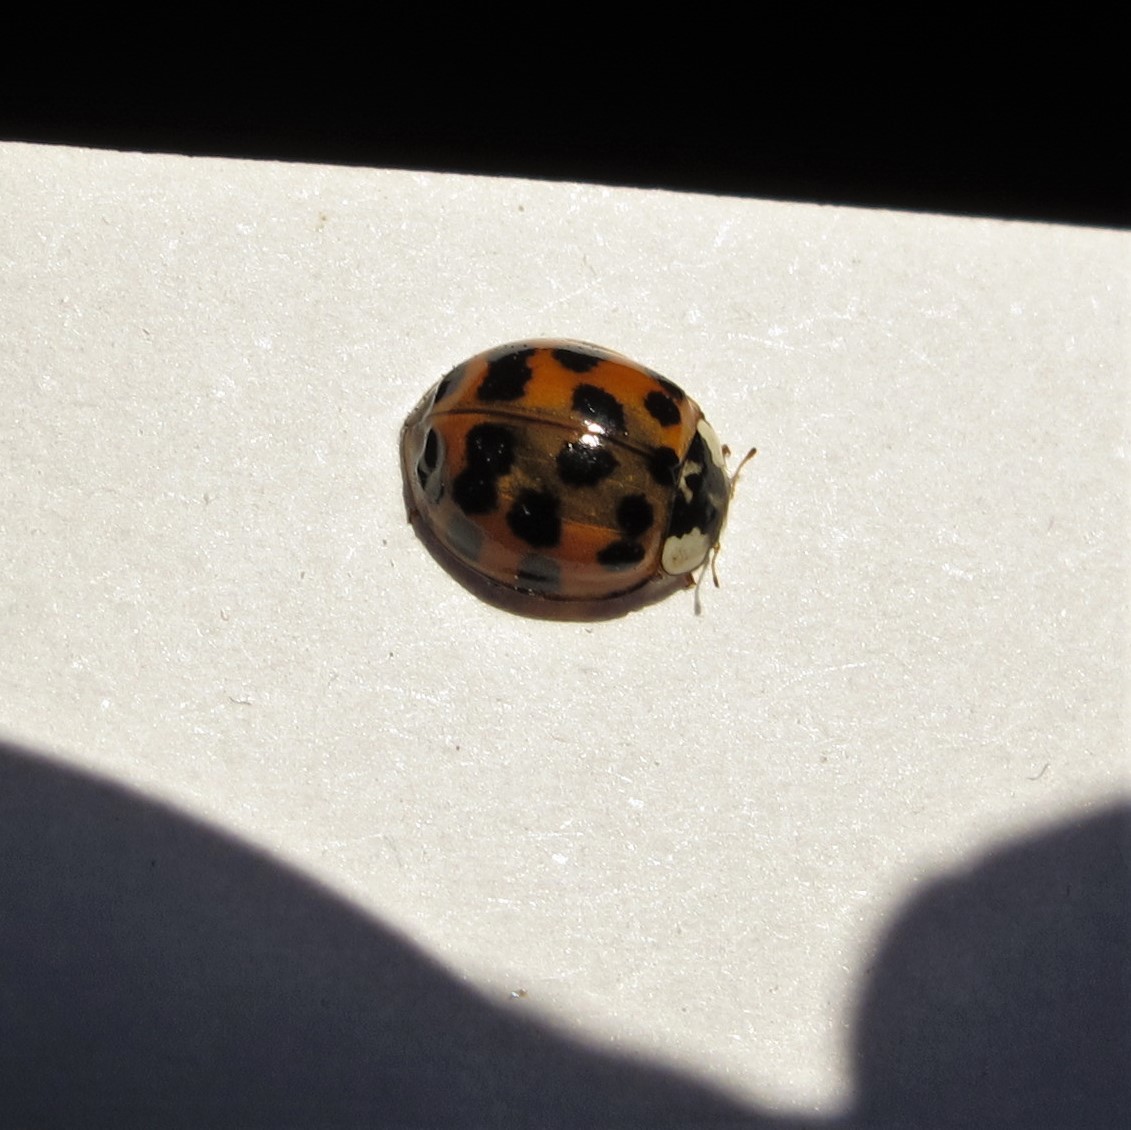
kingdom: Animalia
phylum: Arthropoda
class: Insecta
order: Coleoptera
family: Coccinellidae
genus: Harmonia
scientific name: Harmonia axyridis
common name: Harlequin ladybird
